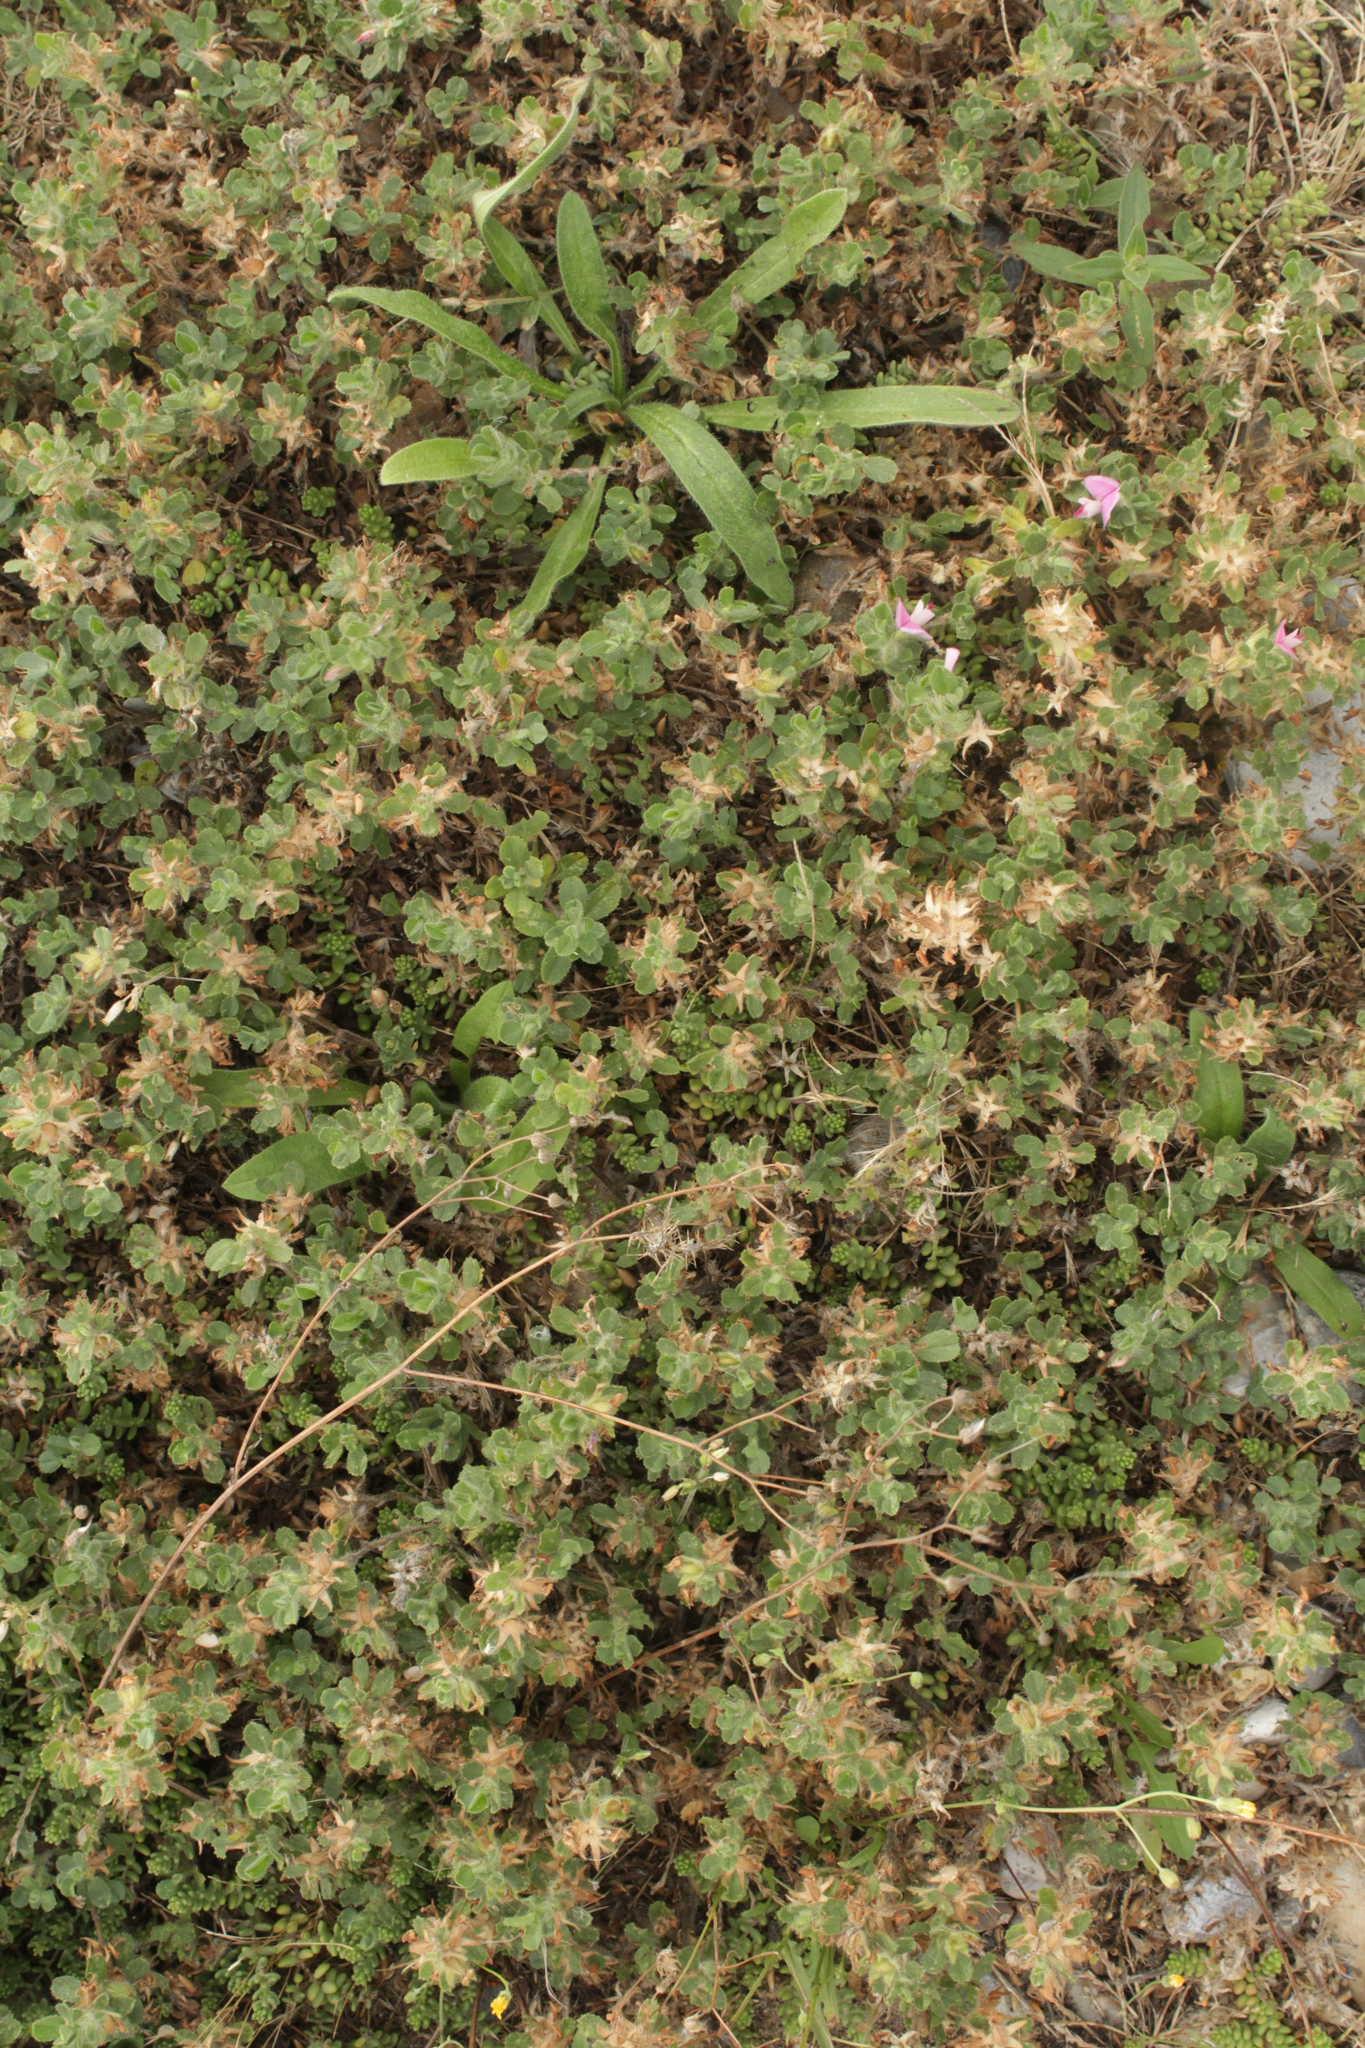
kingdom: Plantae
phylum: Tracheophyta
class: Magnoliopsida
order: Fabales
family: Fabaceae
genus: Ononis
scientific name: Ononis spinosa
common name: Spiny restharrow
